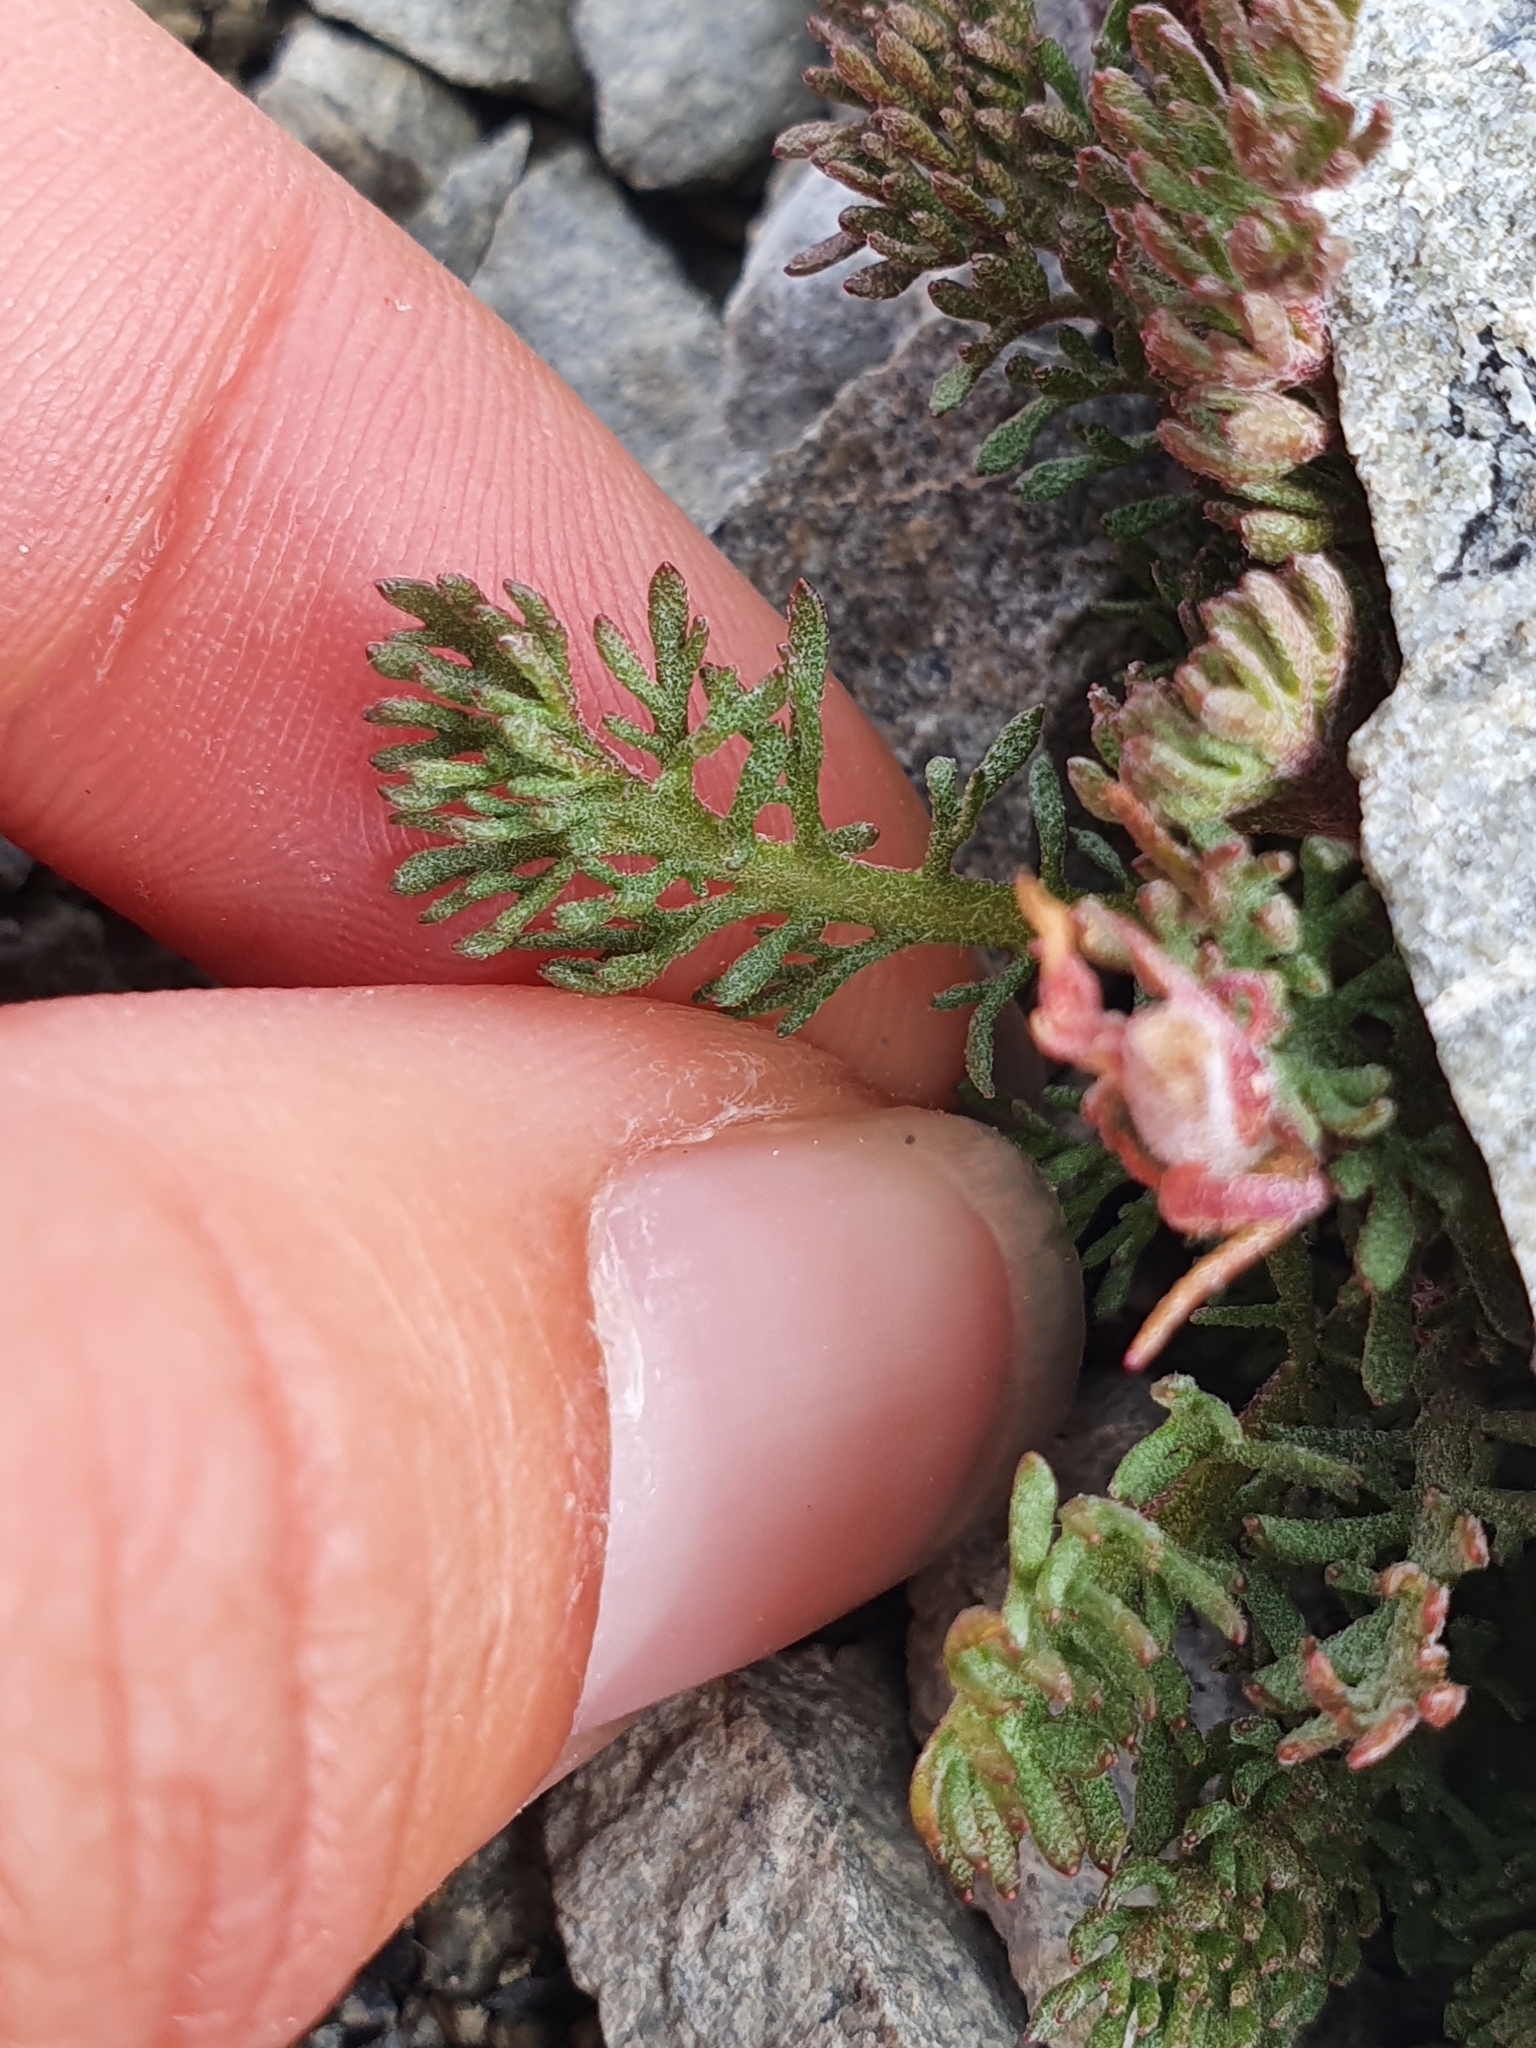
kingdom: Plantae
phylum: Tracheophyta
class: Magnoliopsida
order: Asterales
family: Asteraceae
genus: Leptinella
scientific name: Leptinella atrata
